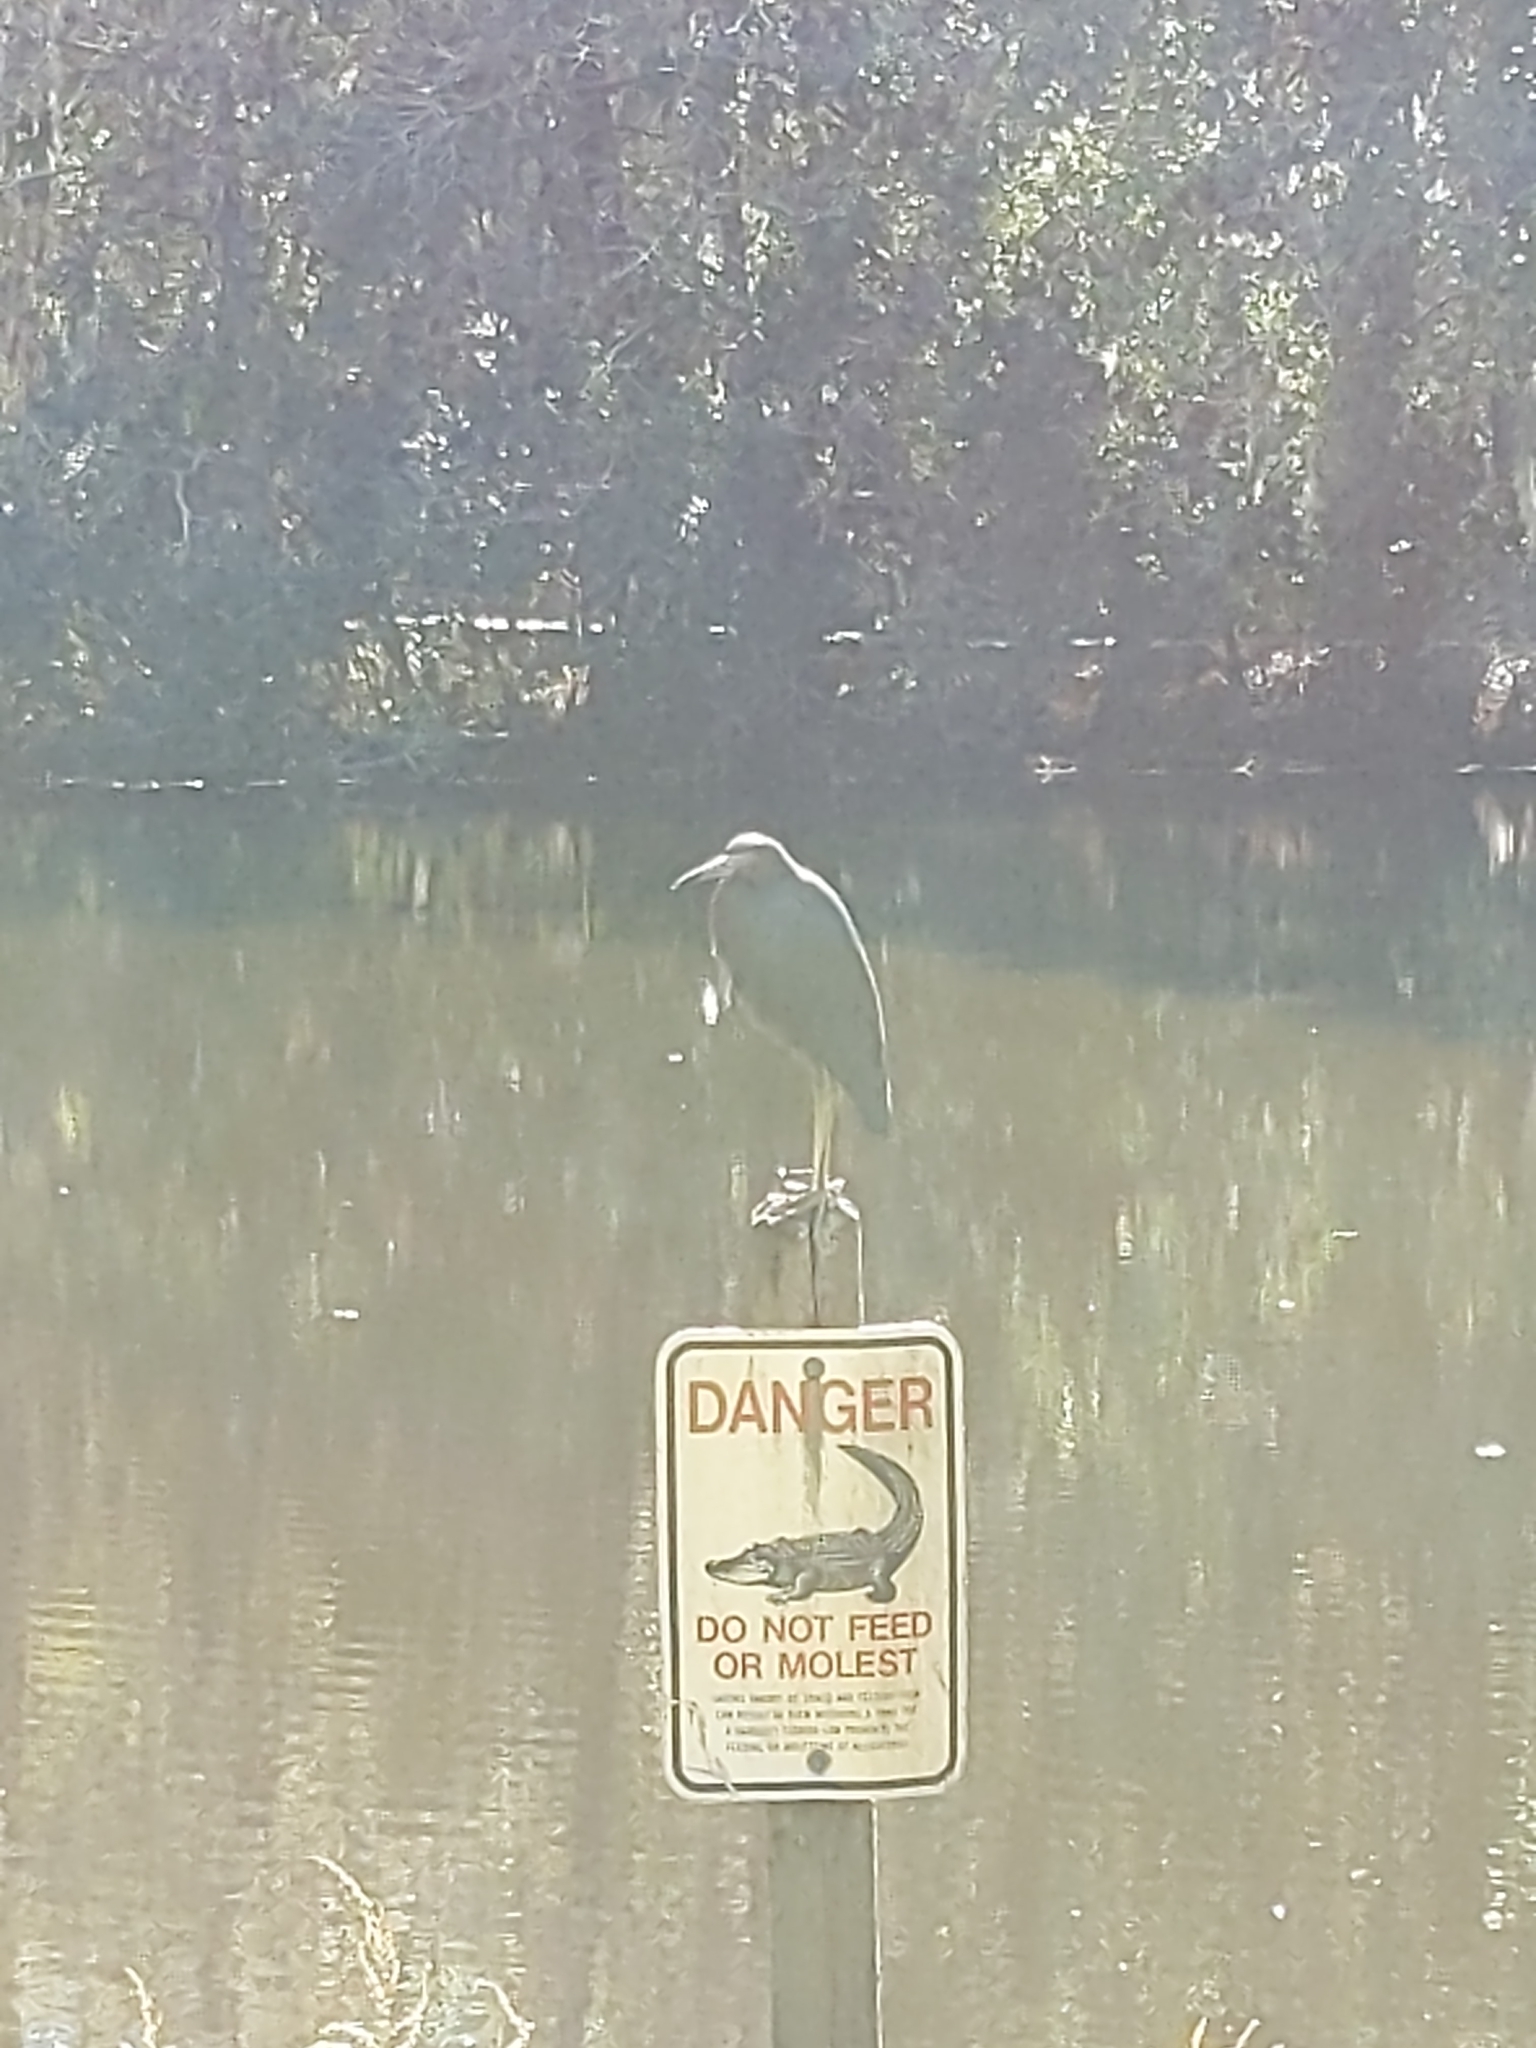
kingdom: Animalia
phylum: Chordata
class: Aves
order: Pelecaniformes
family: Ardeidae
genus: Egretta
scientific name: Egretta caerulea
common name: Little blue heron
